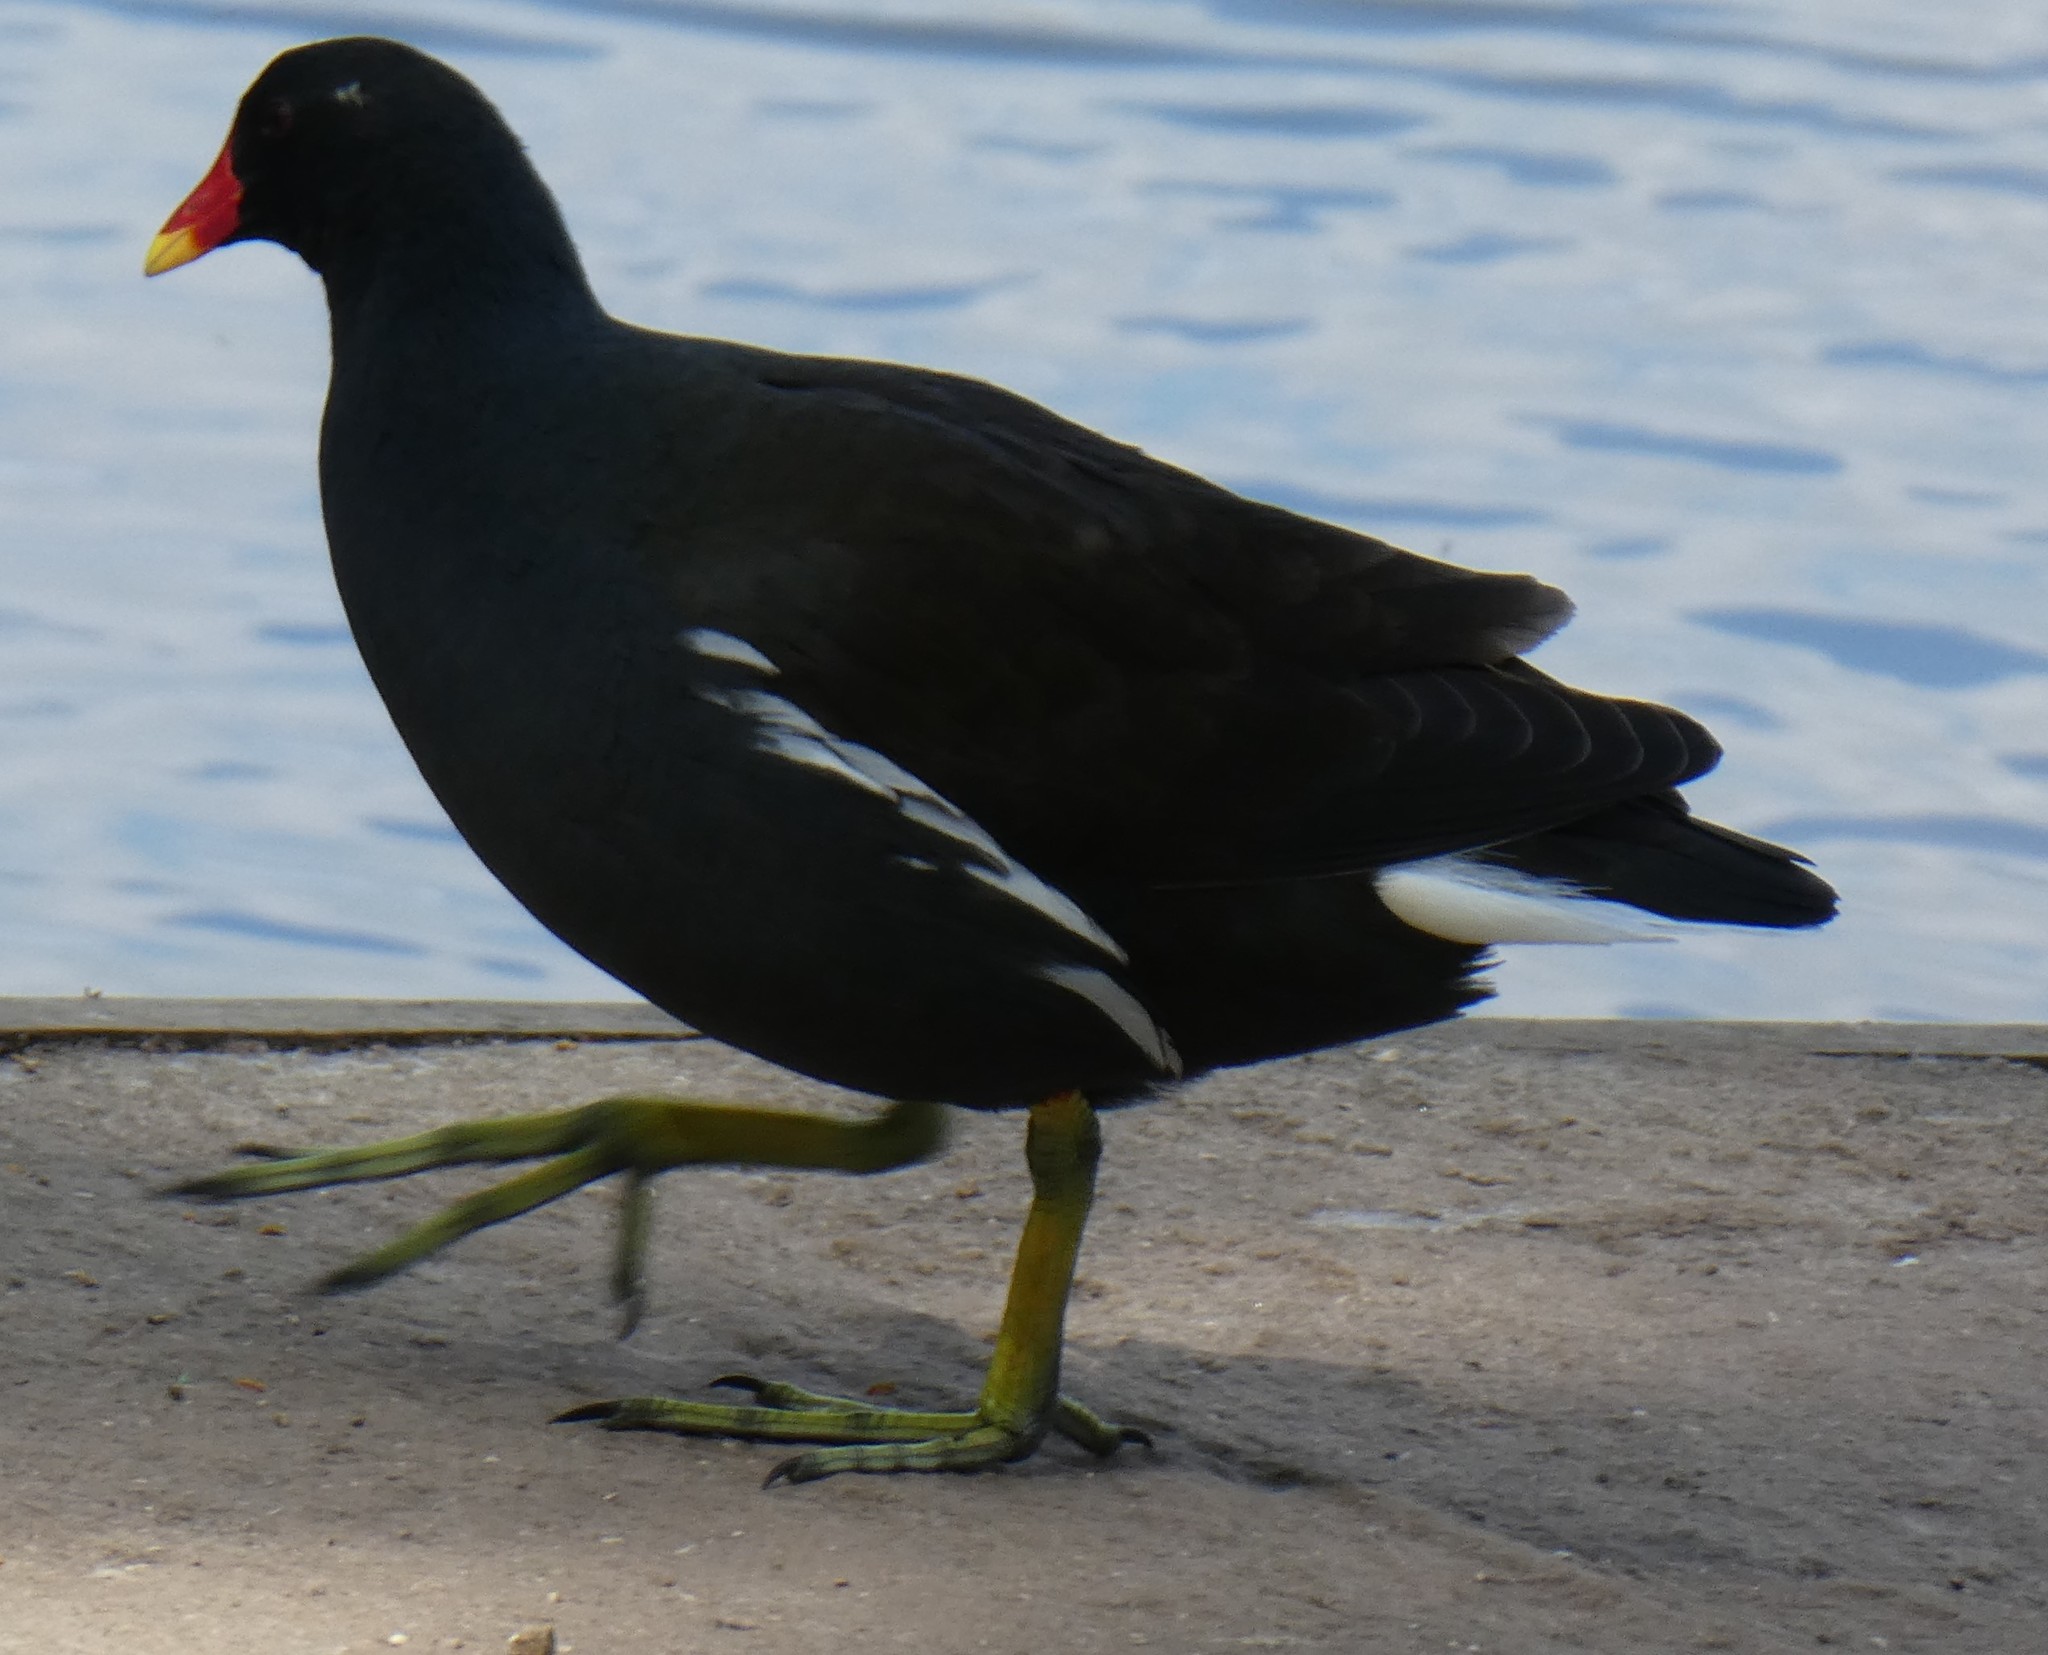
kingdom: Animalia
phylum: Chordata
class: Aves
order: Gruiformes
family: Rallidae
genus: Gallinula
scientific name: Gallinula chloropus
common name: Common moorhen
